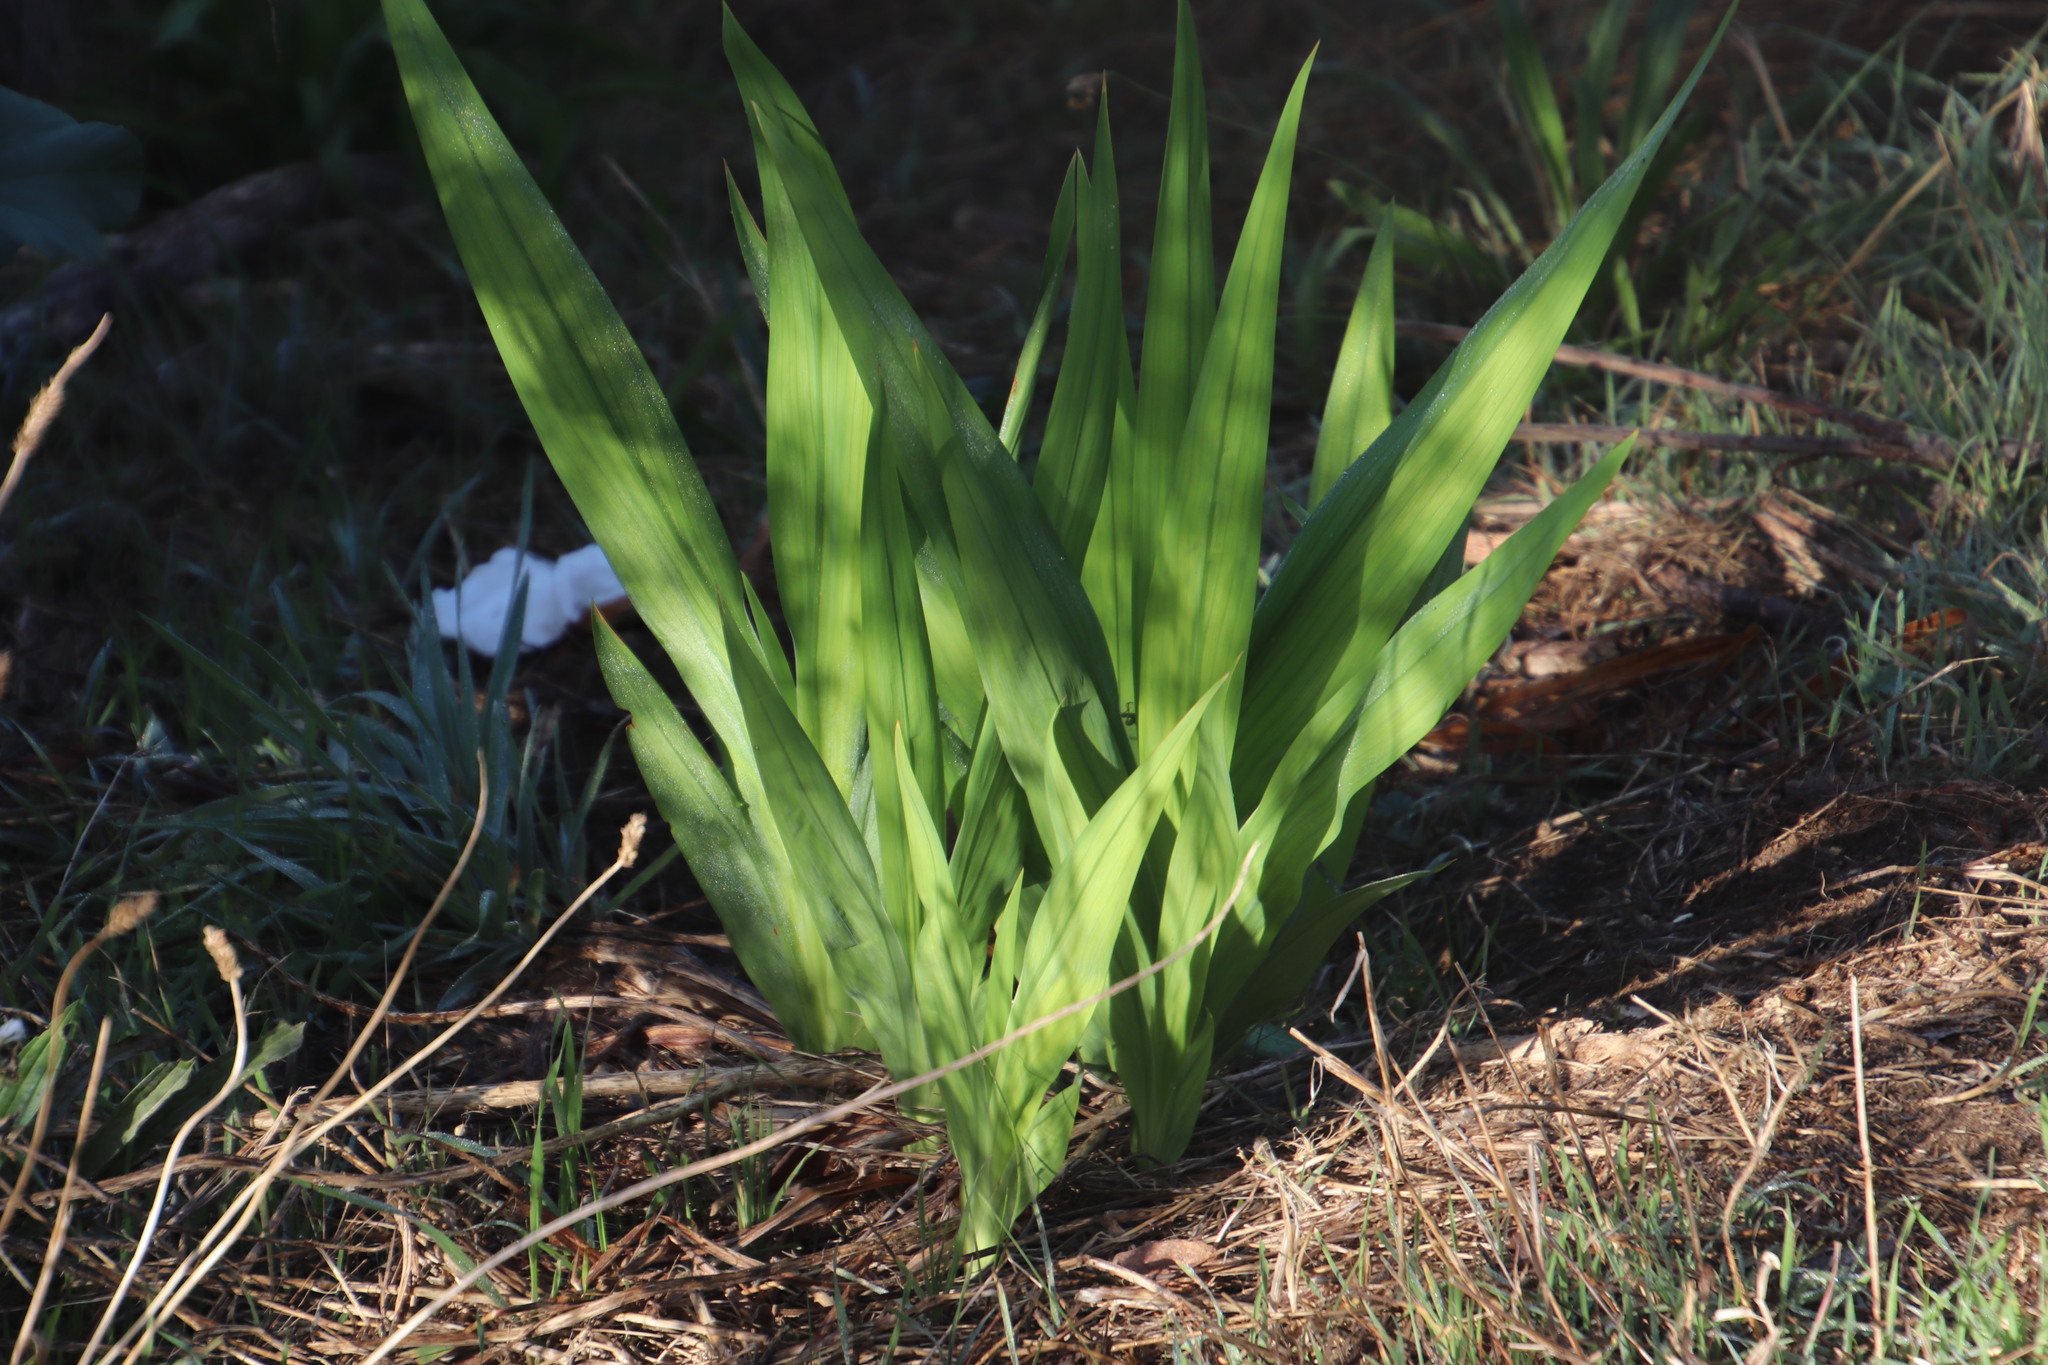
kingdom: Plantae
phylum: Tracheophyta
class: Liliopsida
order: Asparagales
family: Iridaceae
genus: Chasmanthe
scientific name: Chasmanthe aethiopica
